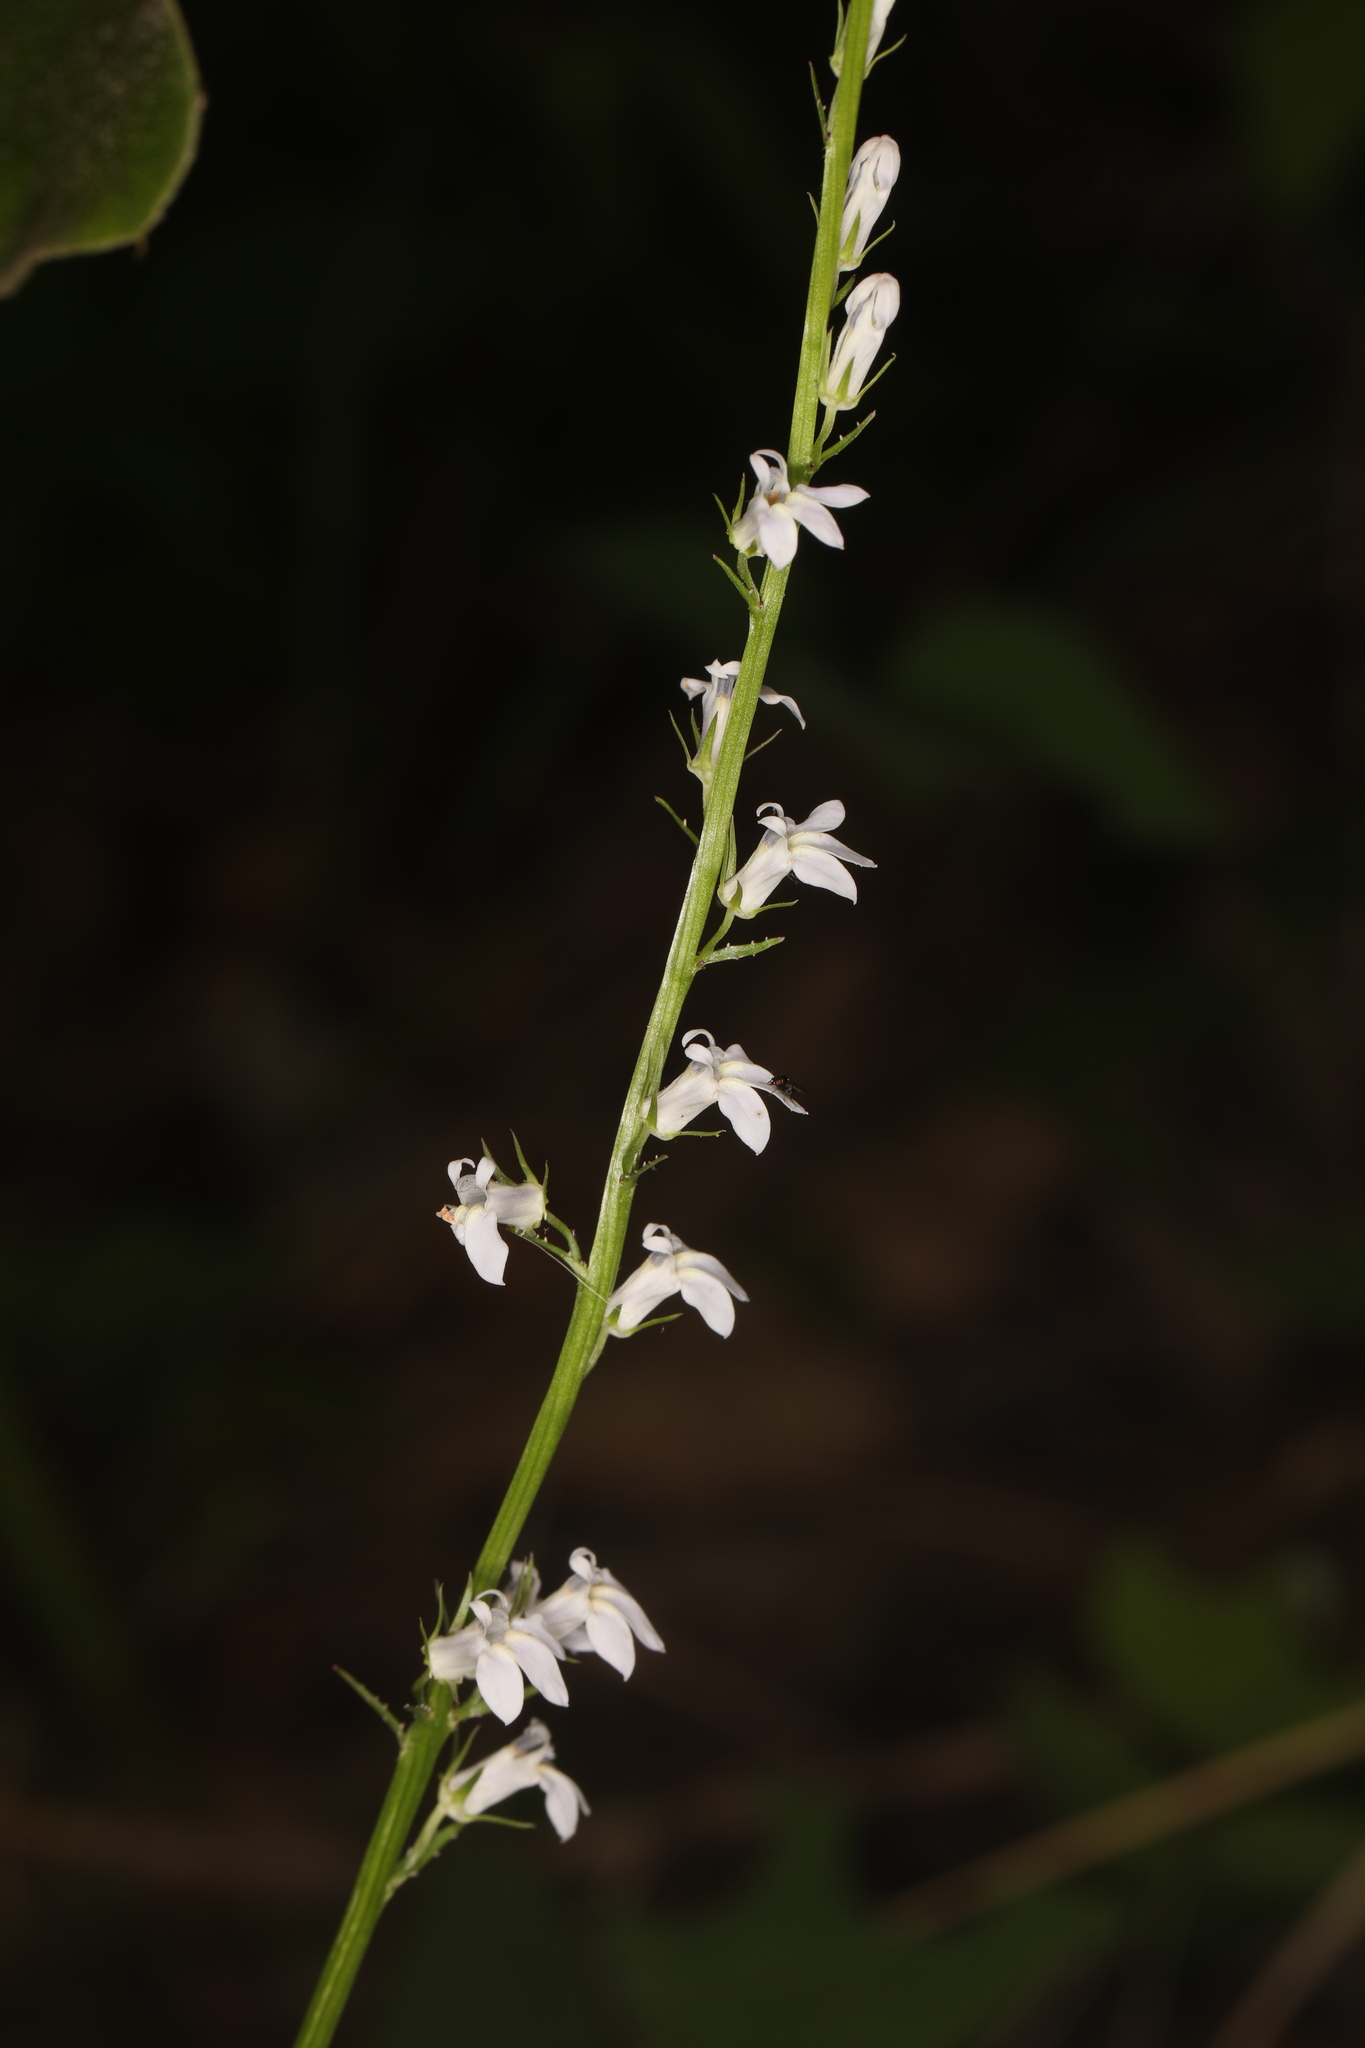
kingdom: Plantae
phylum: Tracheophyta
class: Magnoliopsida
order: Asterales
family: Campanulaceae
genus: Lobelia
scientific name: Lobelia spicata
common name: Pale-spike lobelia
